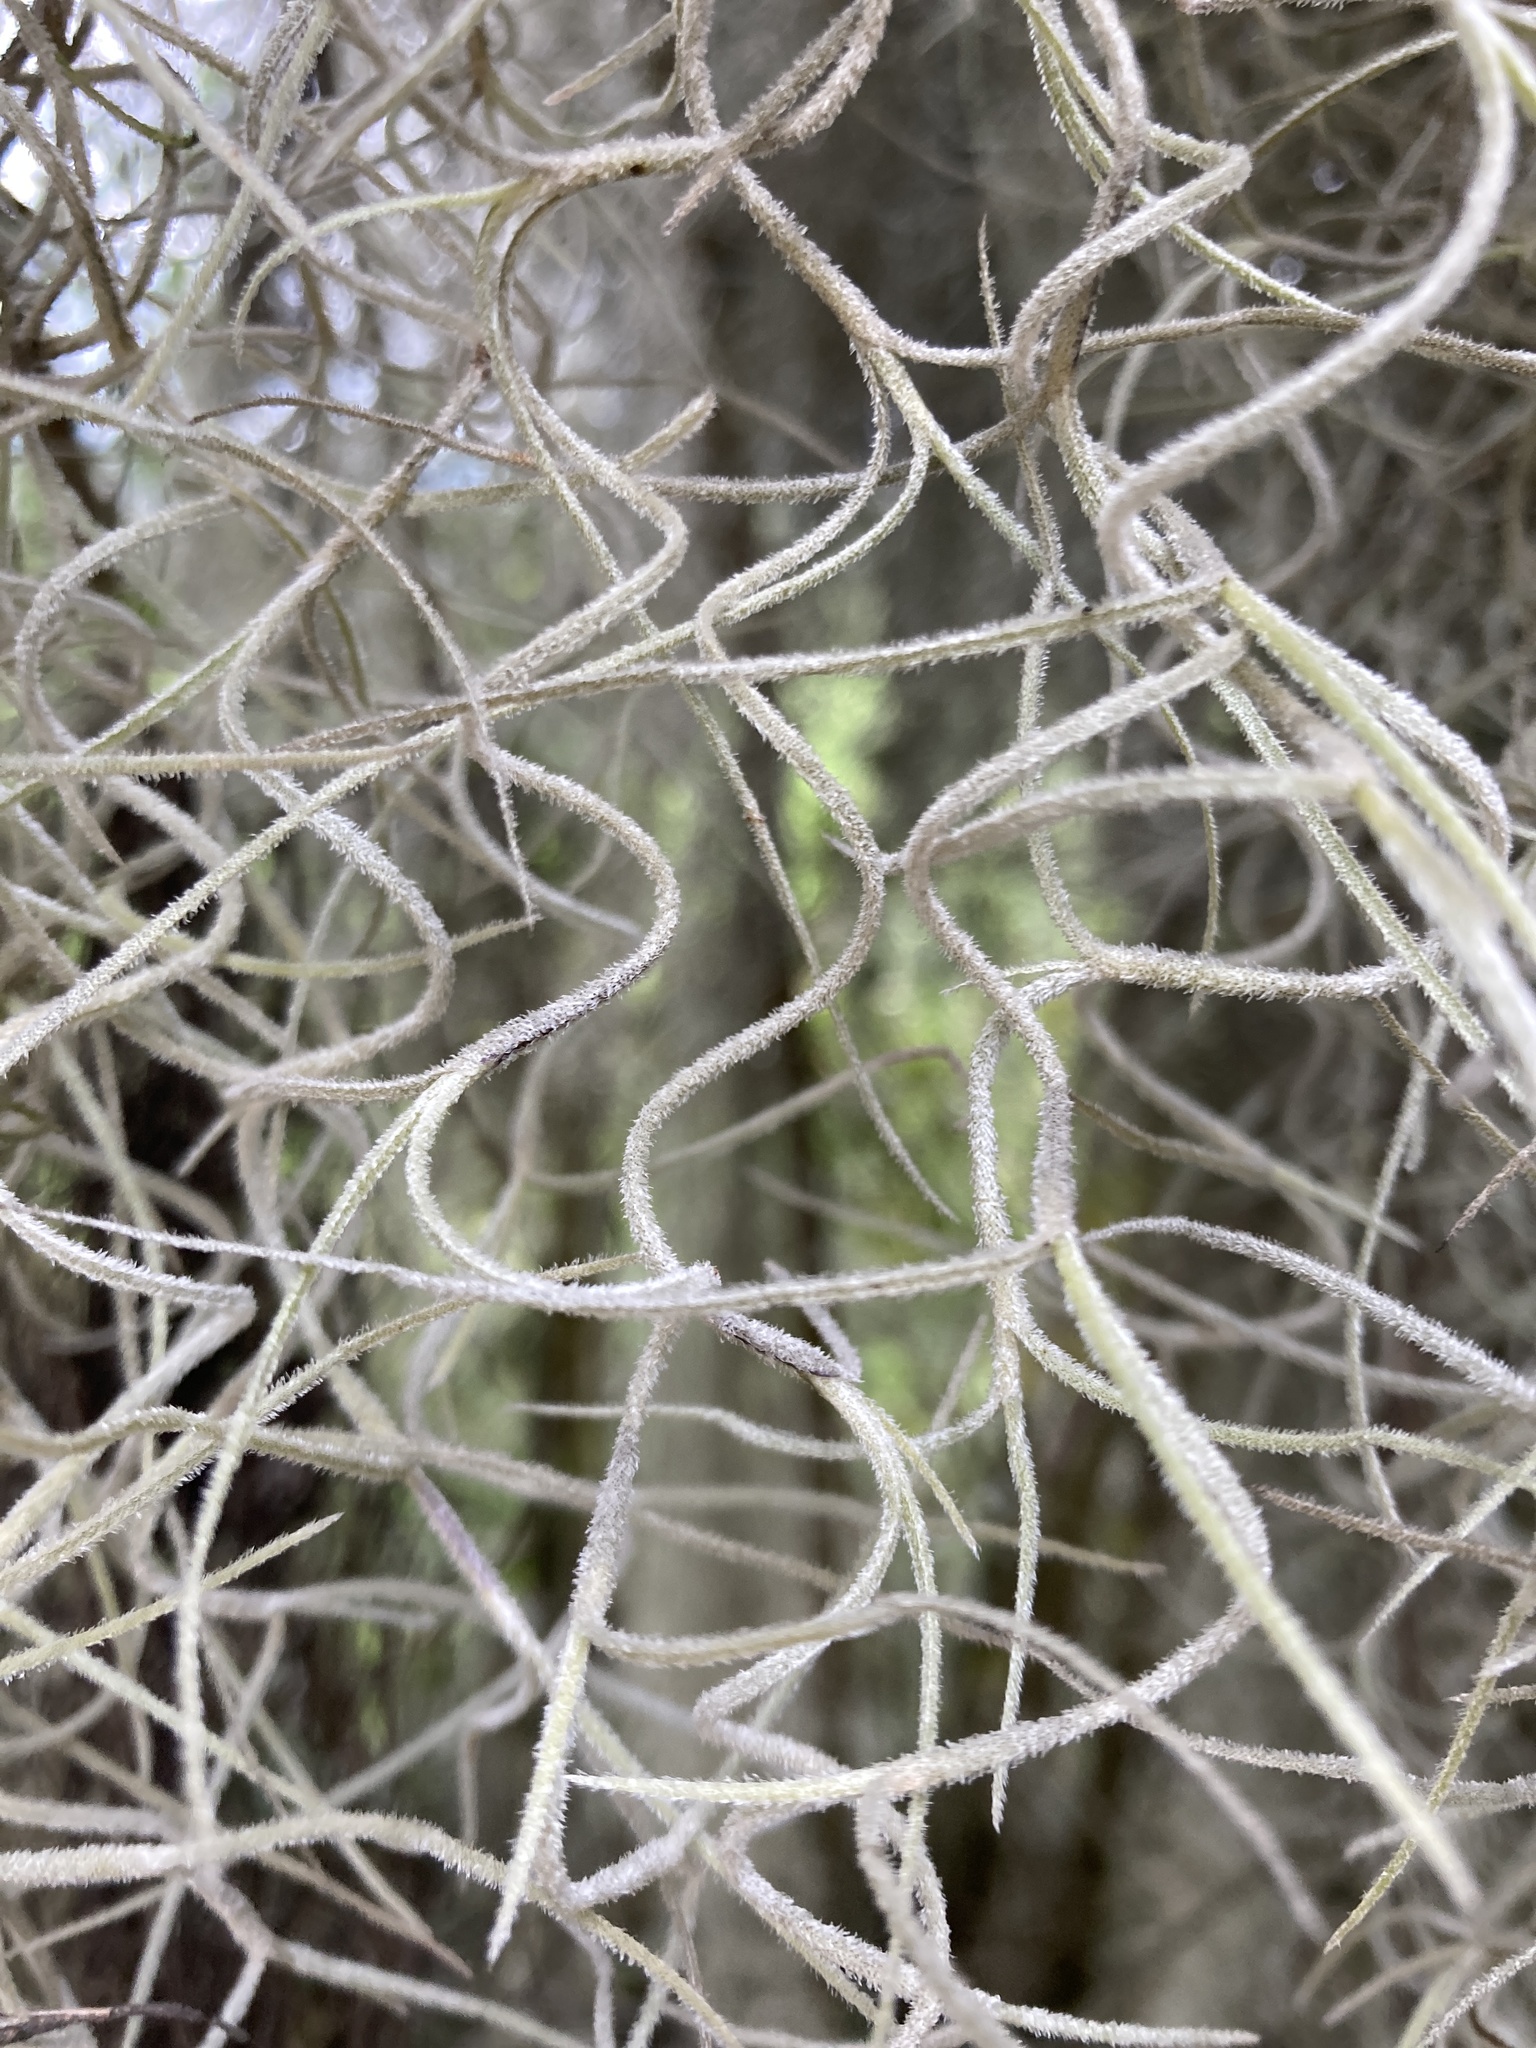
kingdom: Plantae
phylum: Tracheophyta
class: Liliopsida
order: Poales
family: Bromeliaceae
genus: Tillandsia
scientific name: Tillandsia usneoides
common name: Spanish moss
